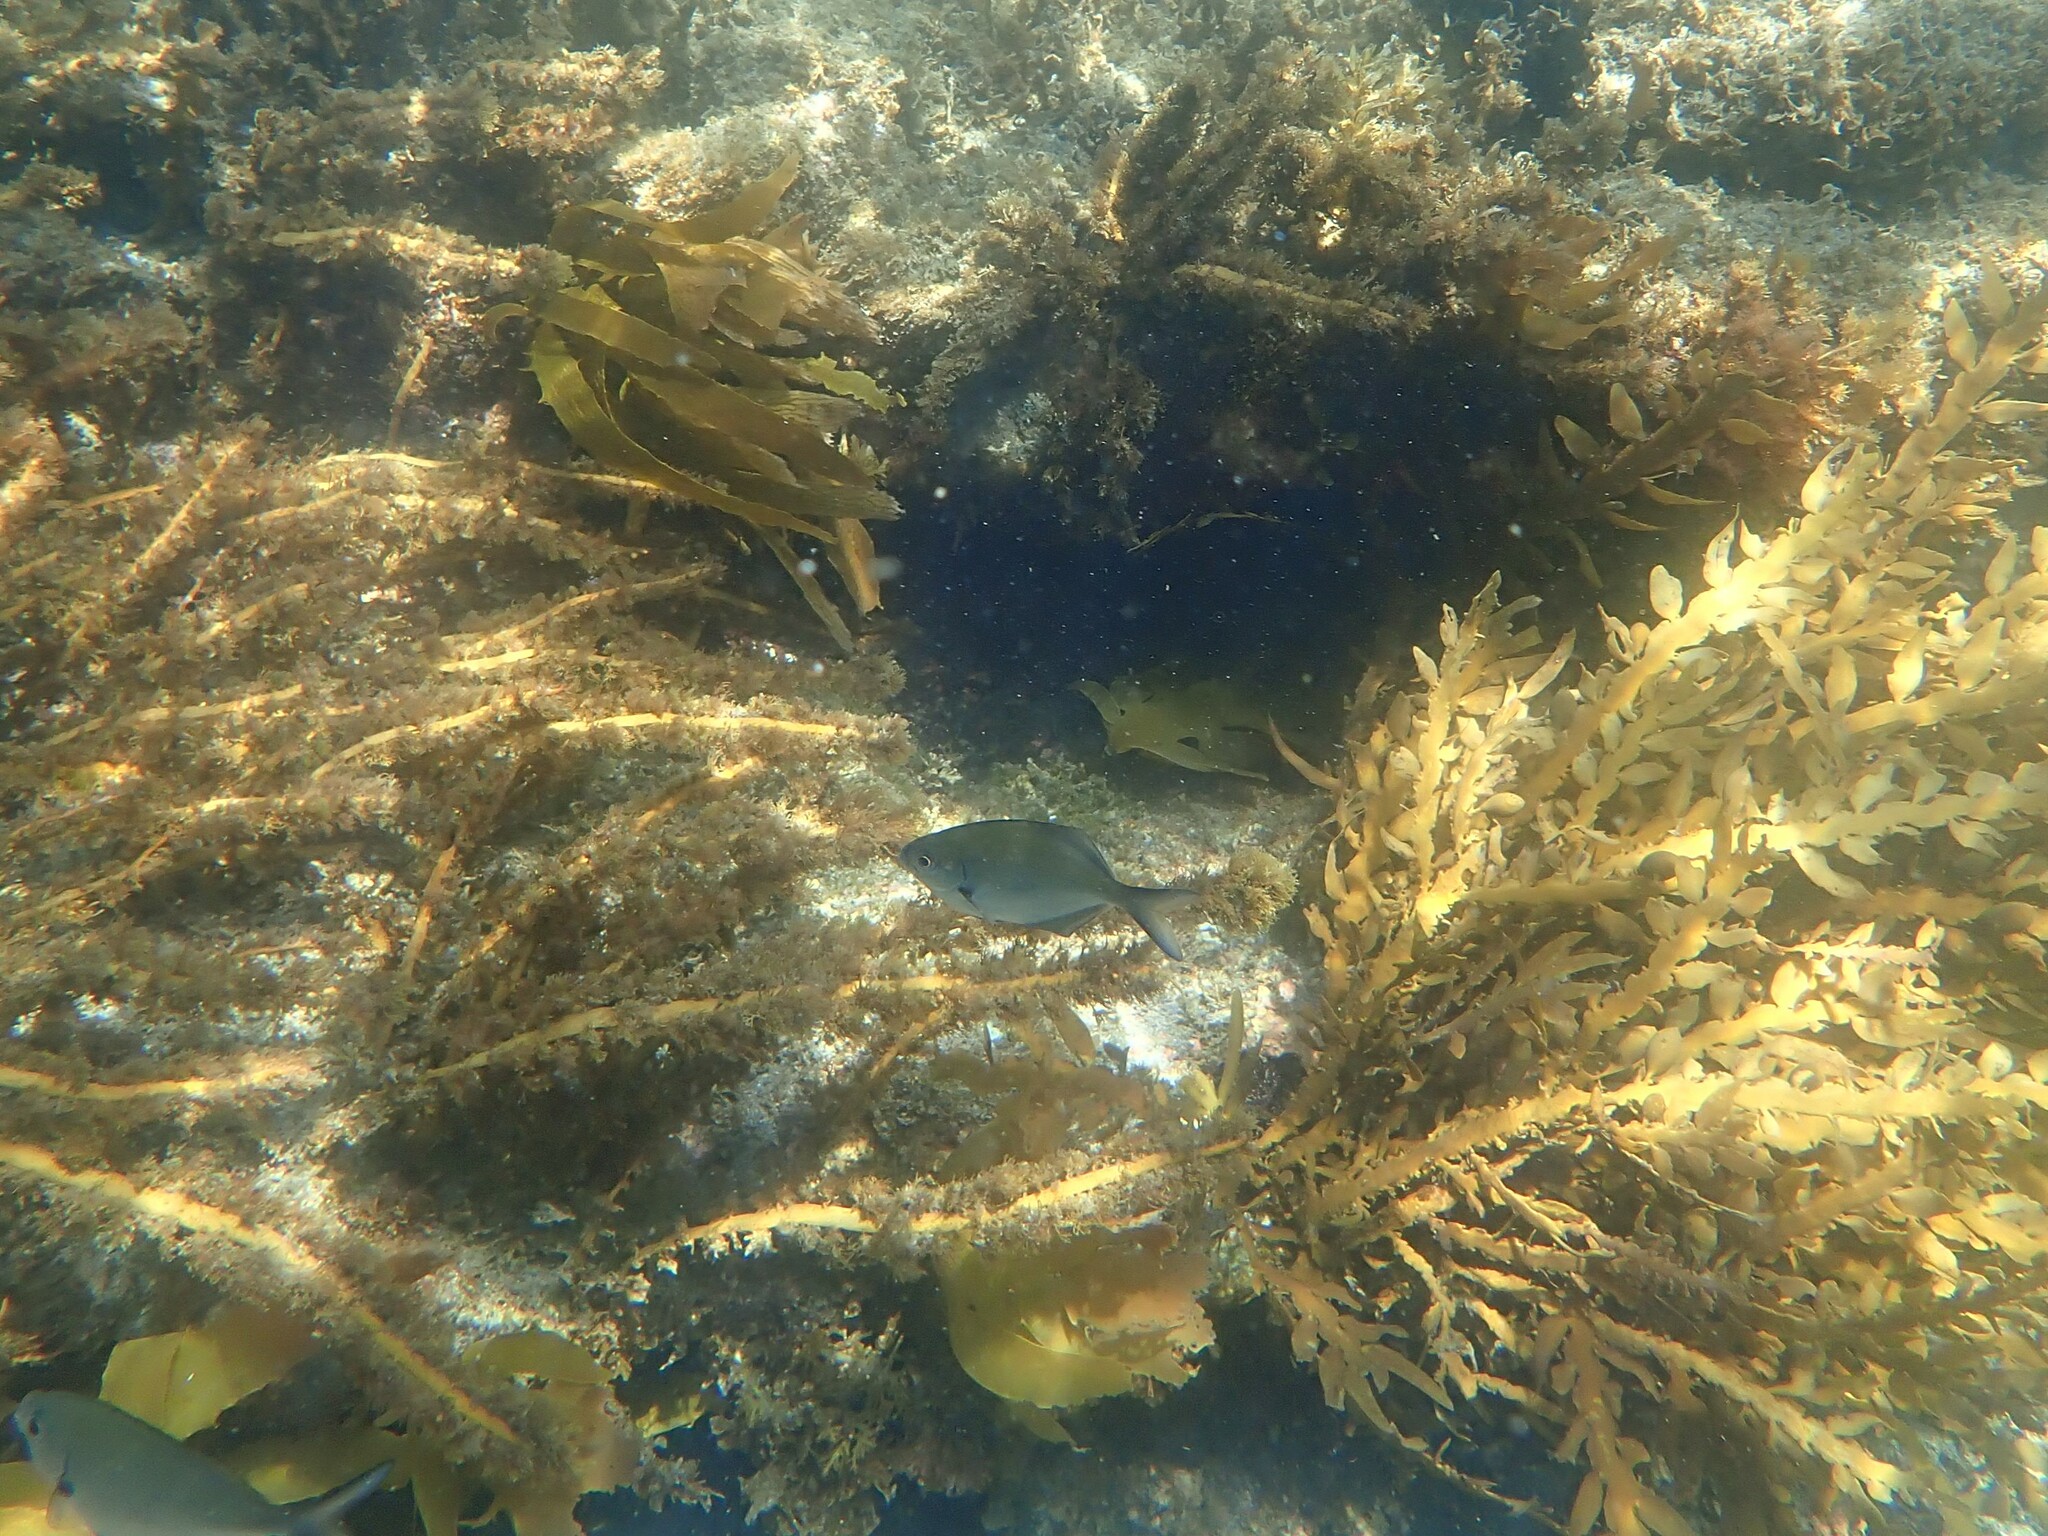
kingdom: Animalia
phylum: Chordata
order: Perciformes
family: Kyphosidae
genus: Scorpis
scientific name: Scorpis lineolata
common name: Sweep
